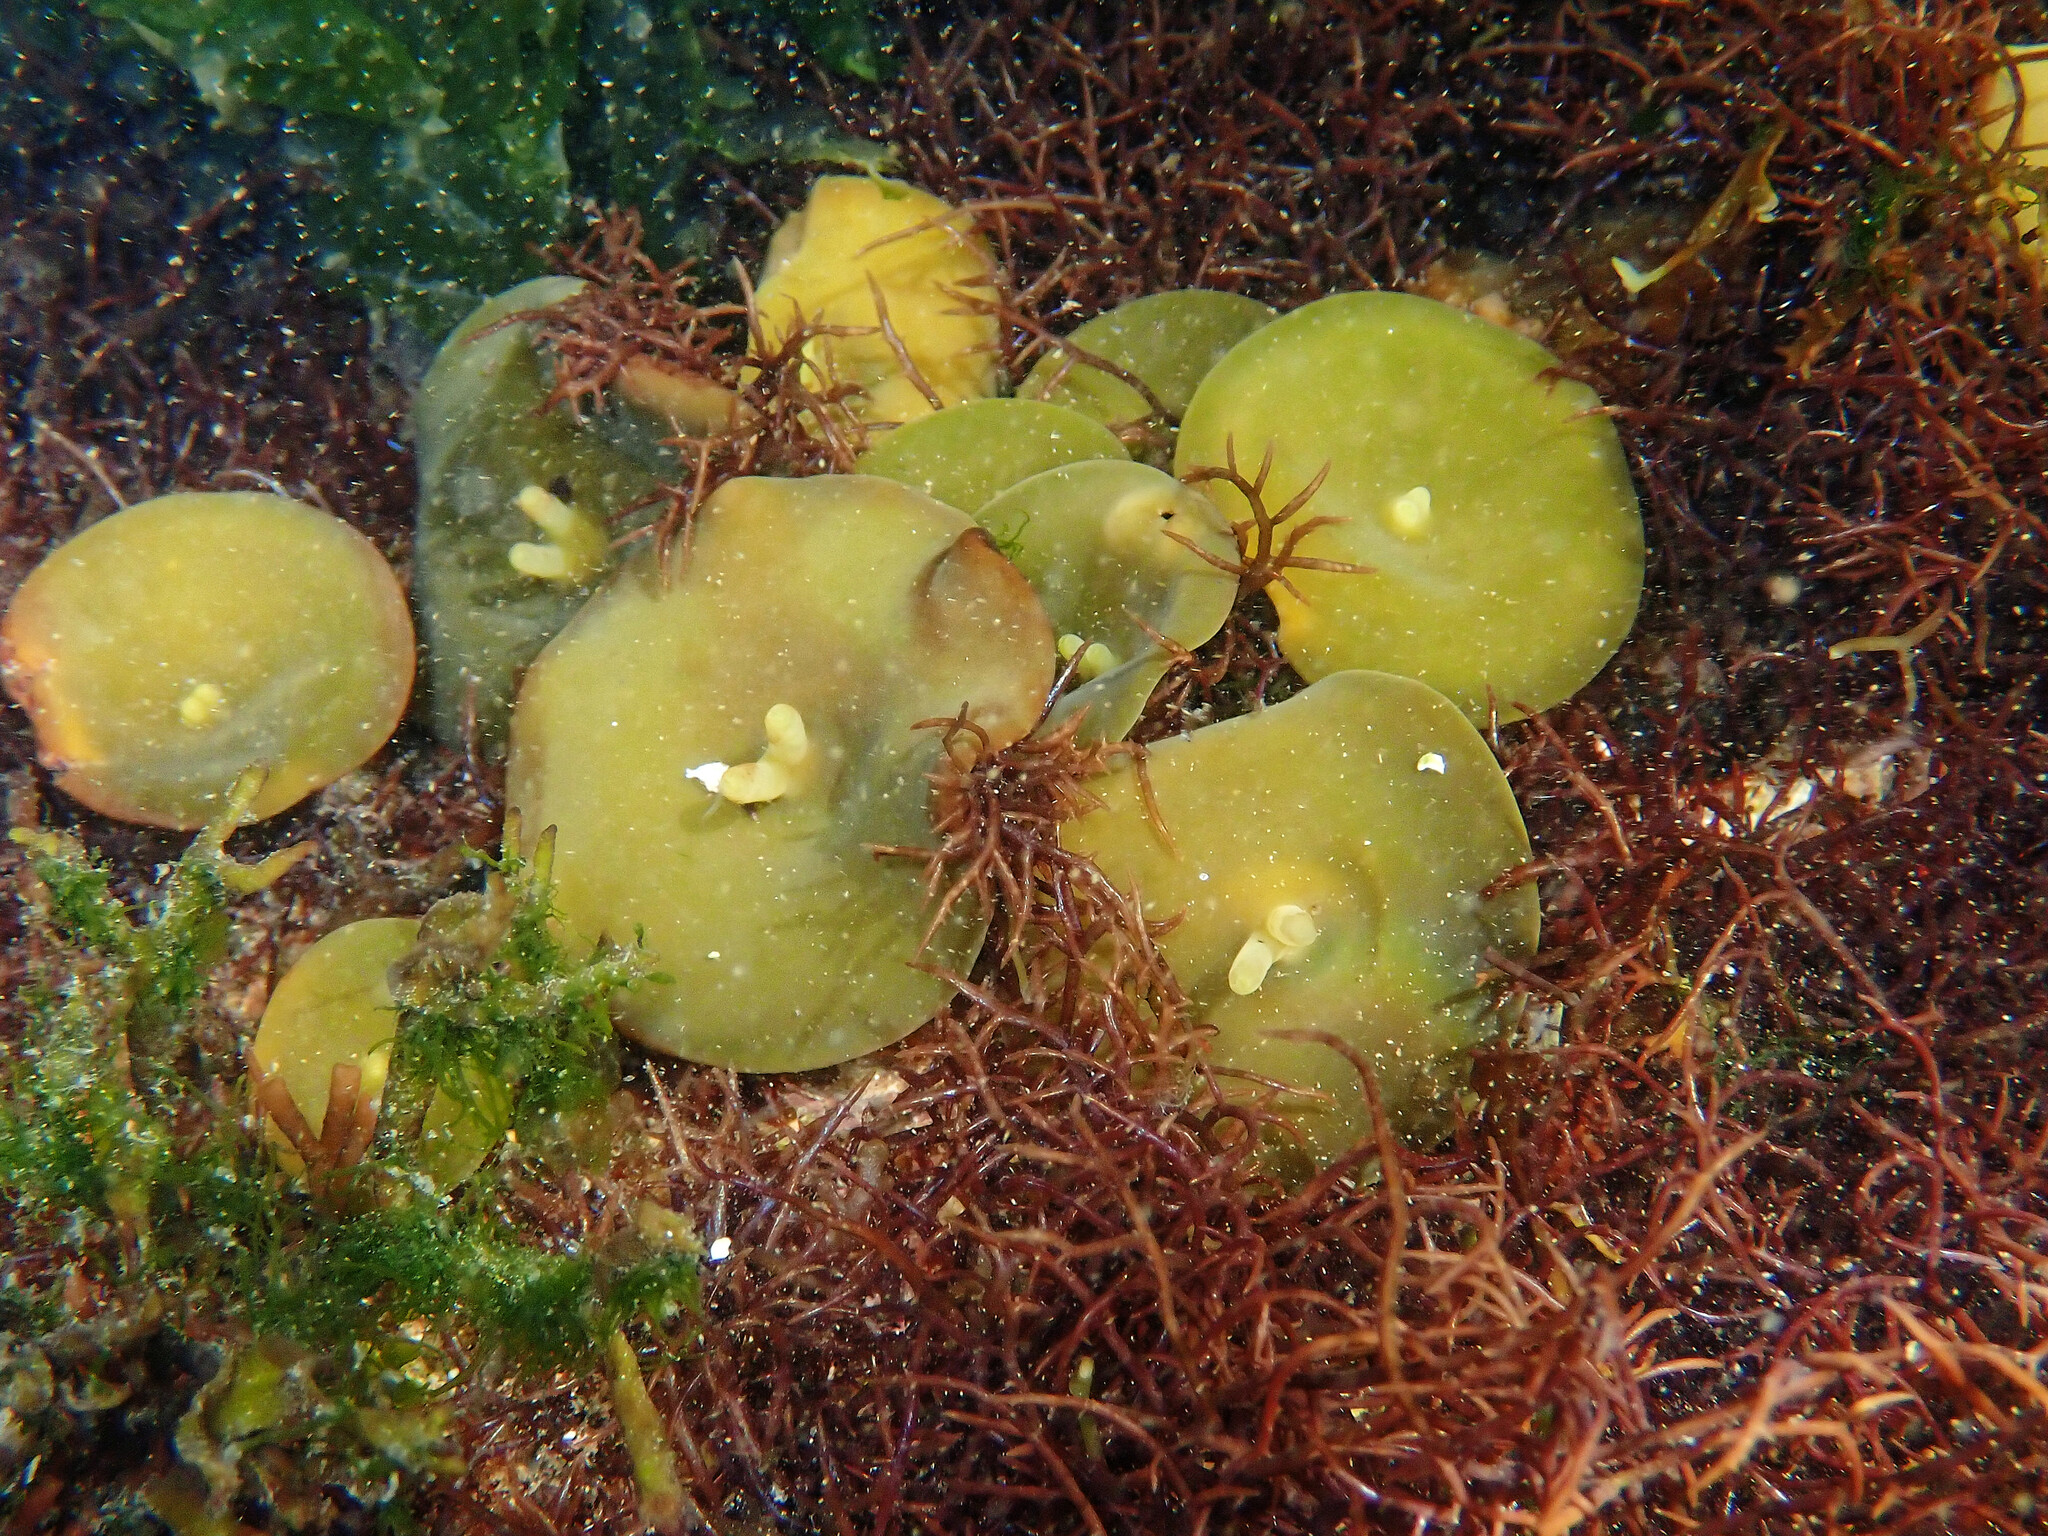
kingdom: Chromista
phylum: Ochrophyta
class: Phaeophyceae
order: Fucales
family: Himanthaliaceae
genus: Himanthalia
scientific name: Himanthalia elongata
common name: Sea-thong
